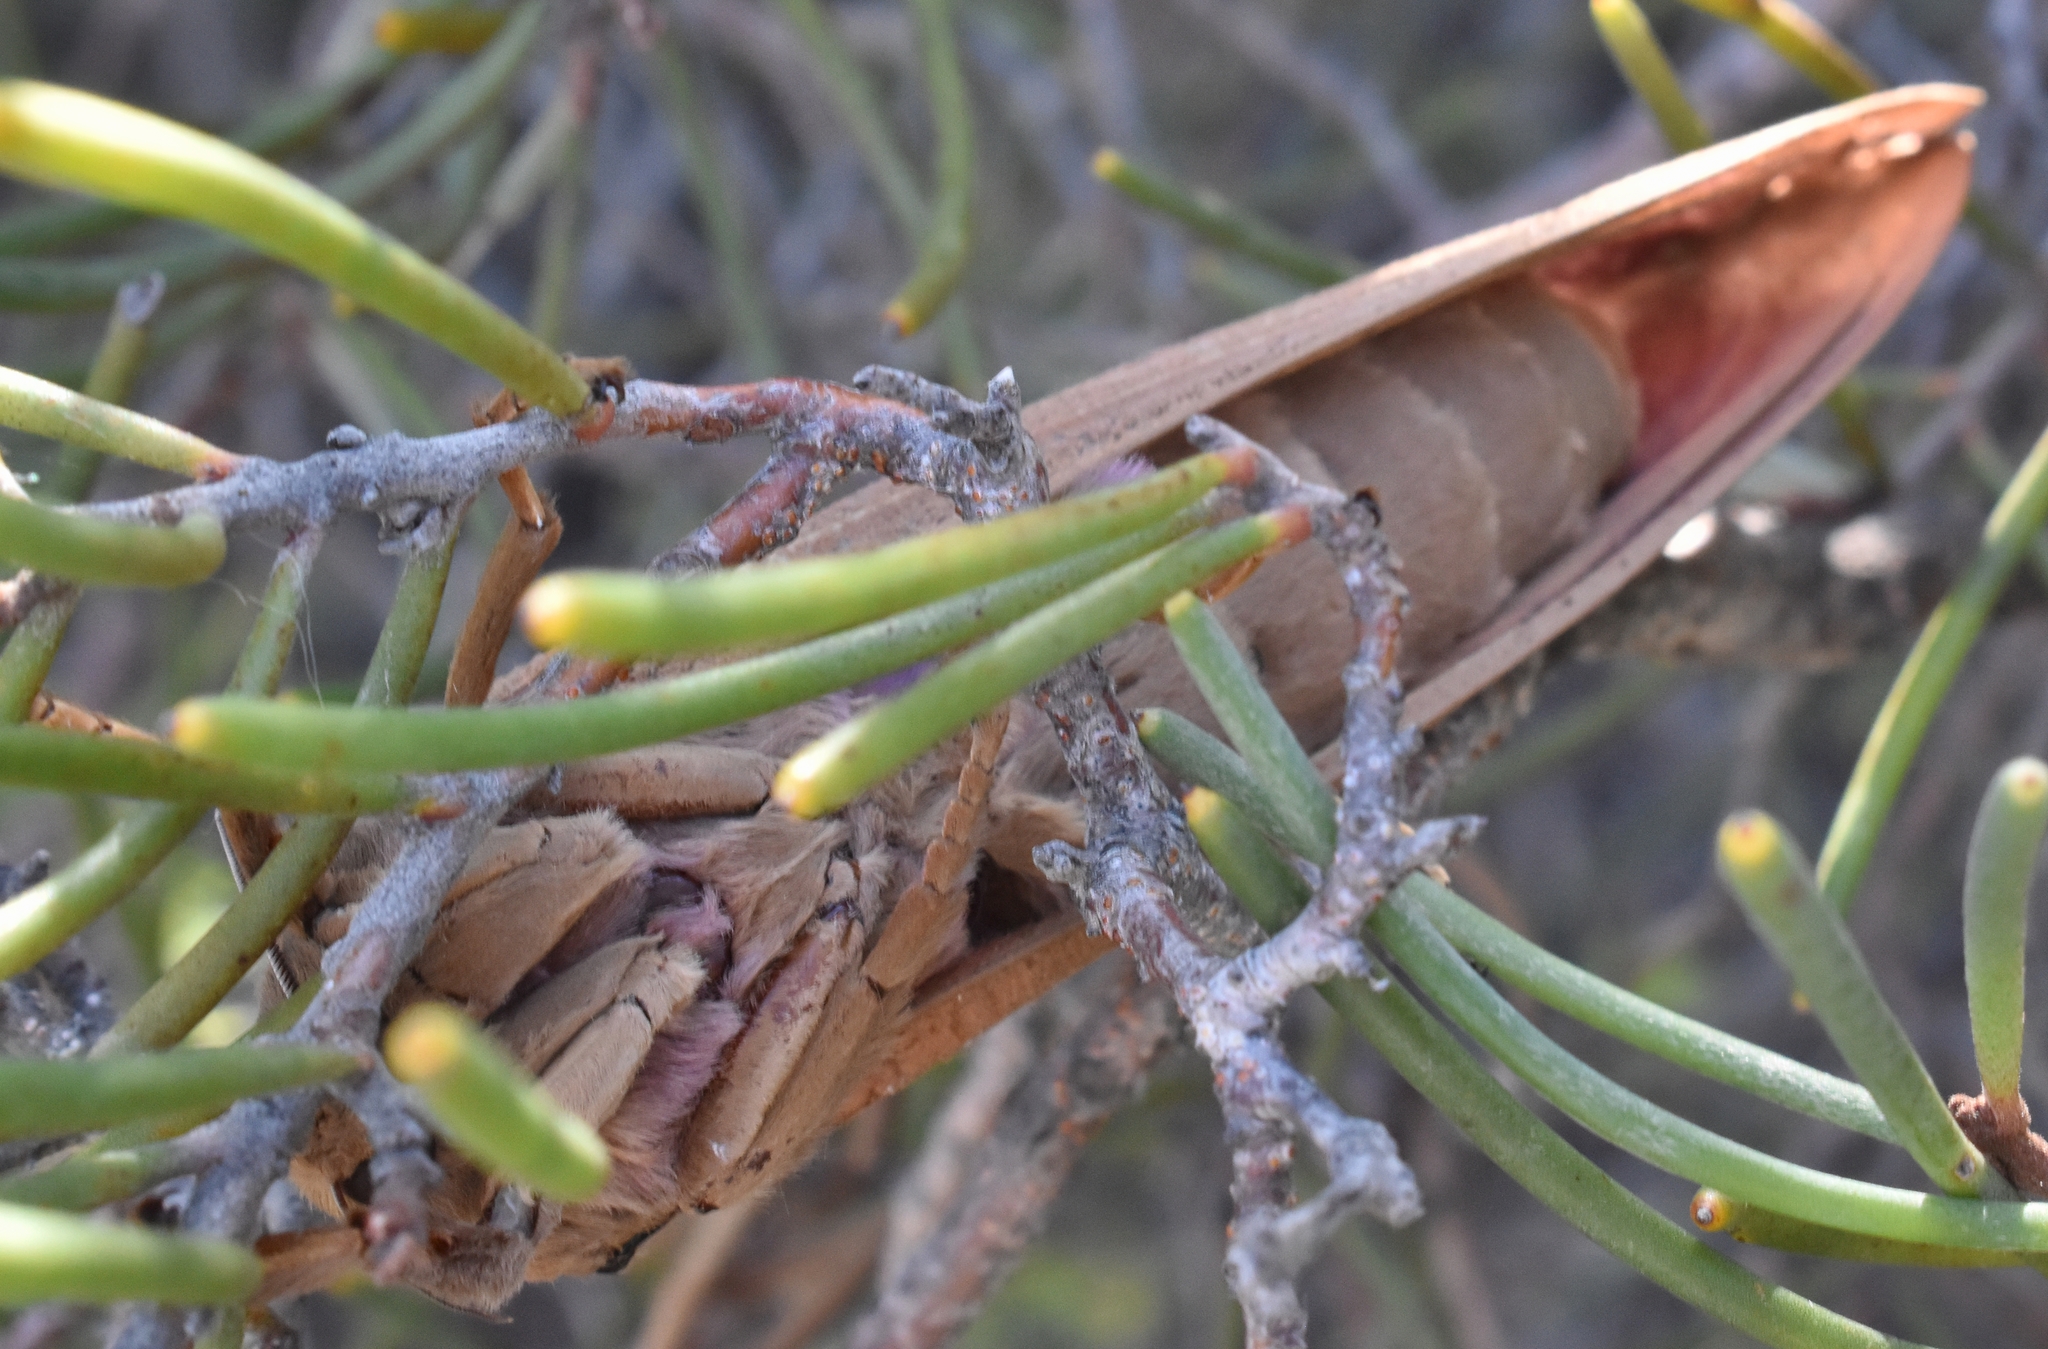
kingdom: Animalia
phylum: Arthropoda
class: Insecta
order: Lepidoptera
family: Hepialidae
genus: Abantiades
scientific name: Abantiades hyalinatus
